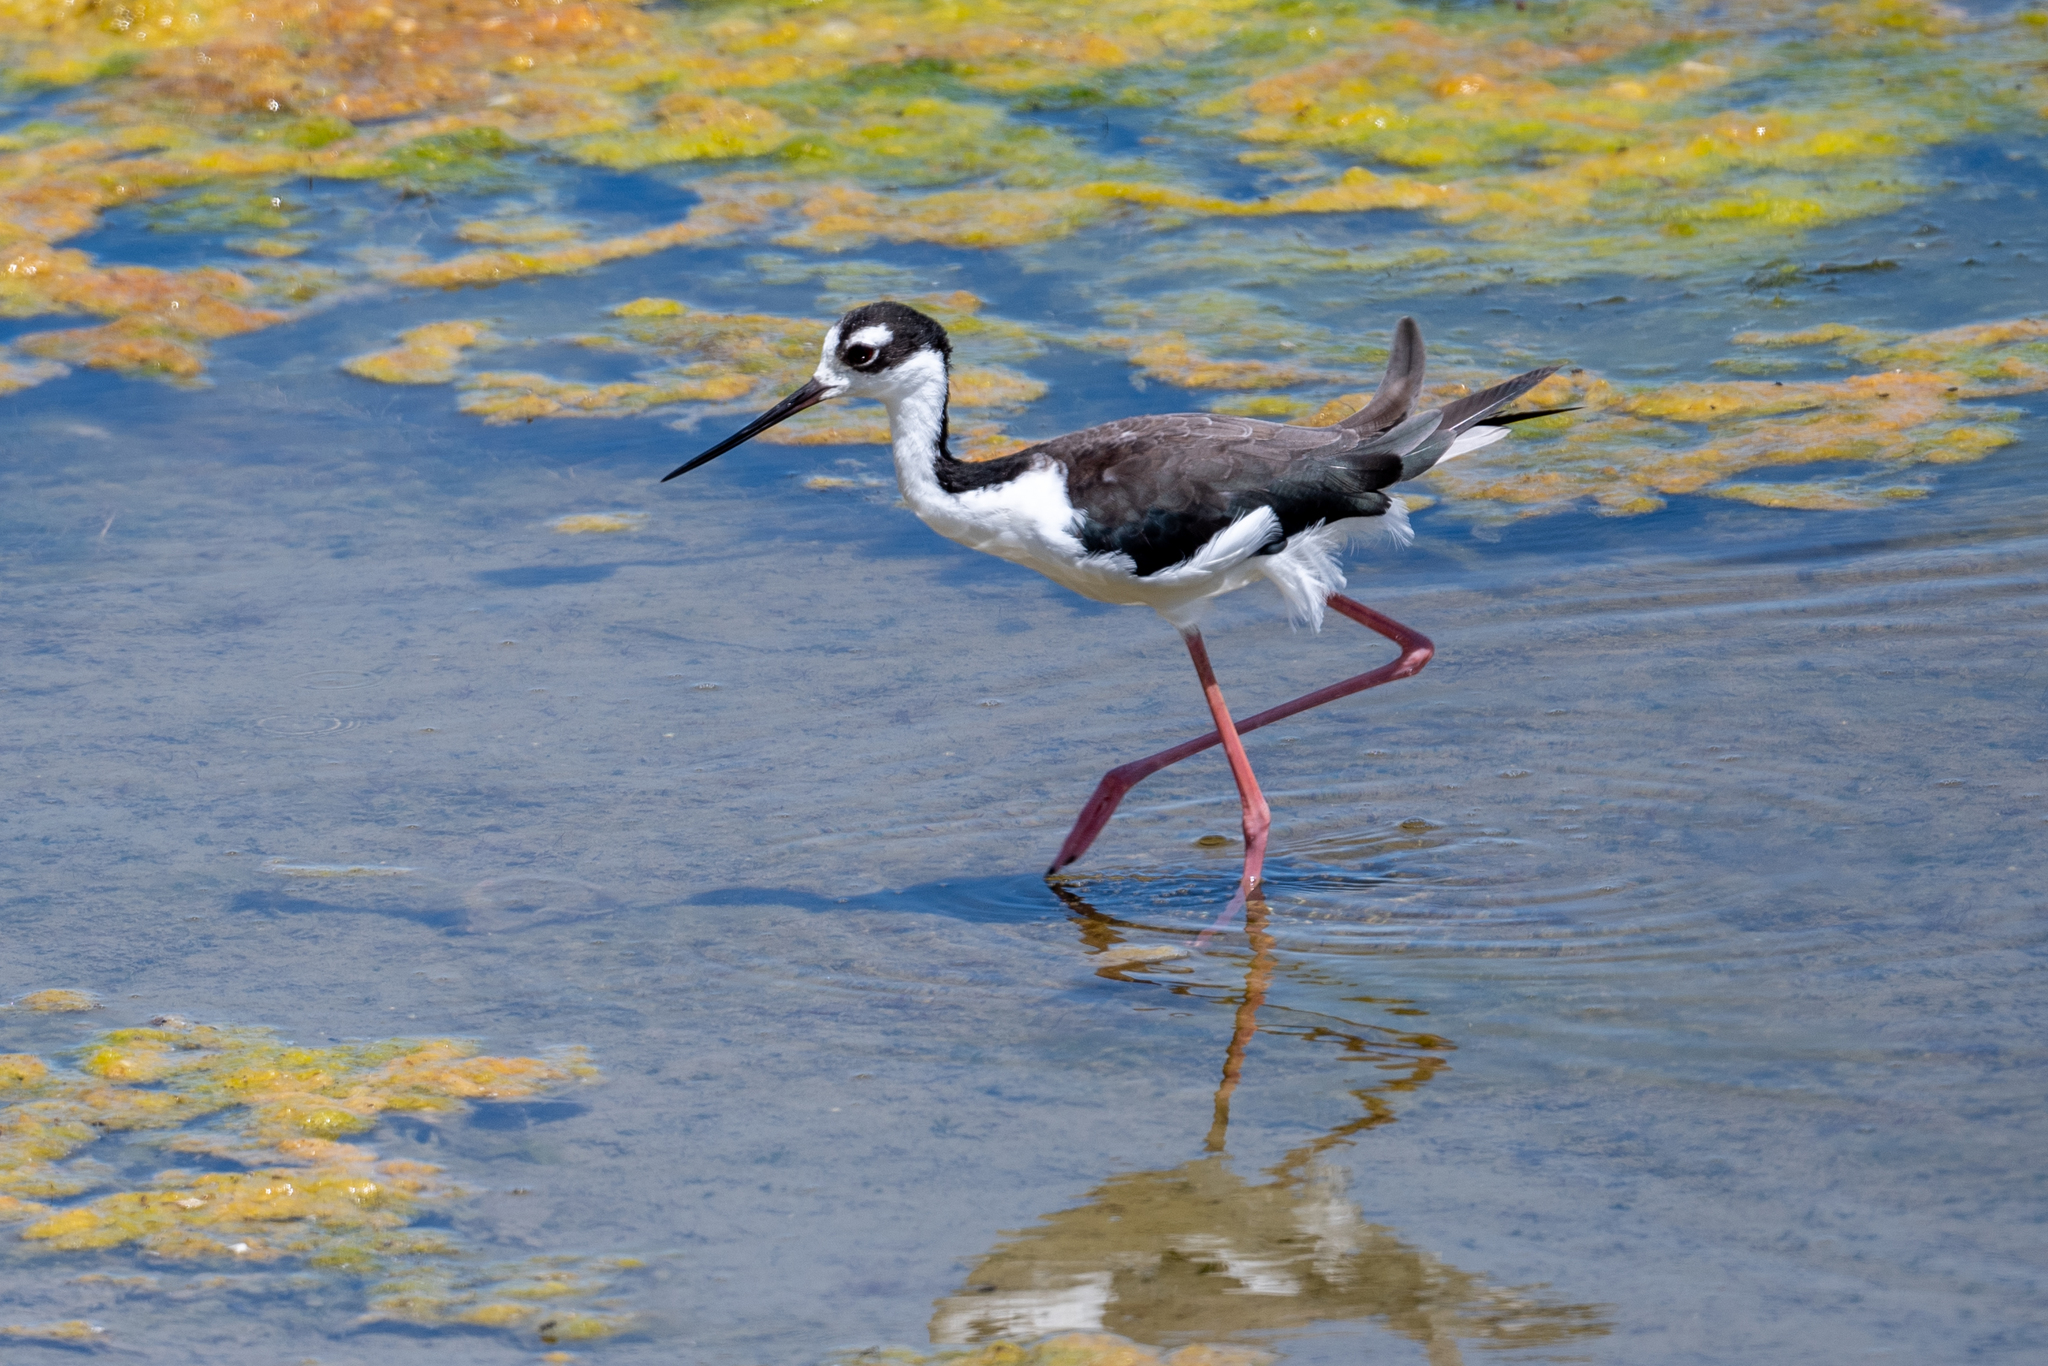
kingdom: Animalia
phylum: Chordata
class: Aves
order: Charadriiformes
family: Recurvirostridae
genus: Himantopus
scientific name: Himantopus mexicanus
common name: Black-necked stilt
